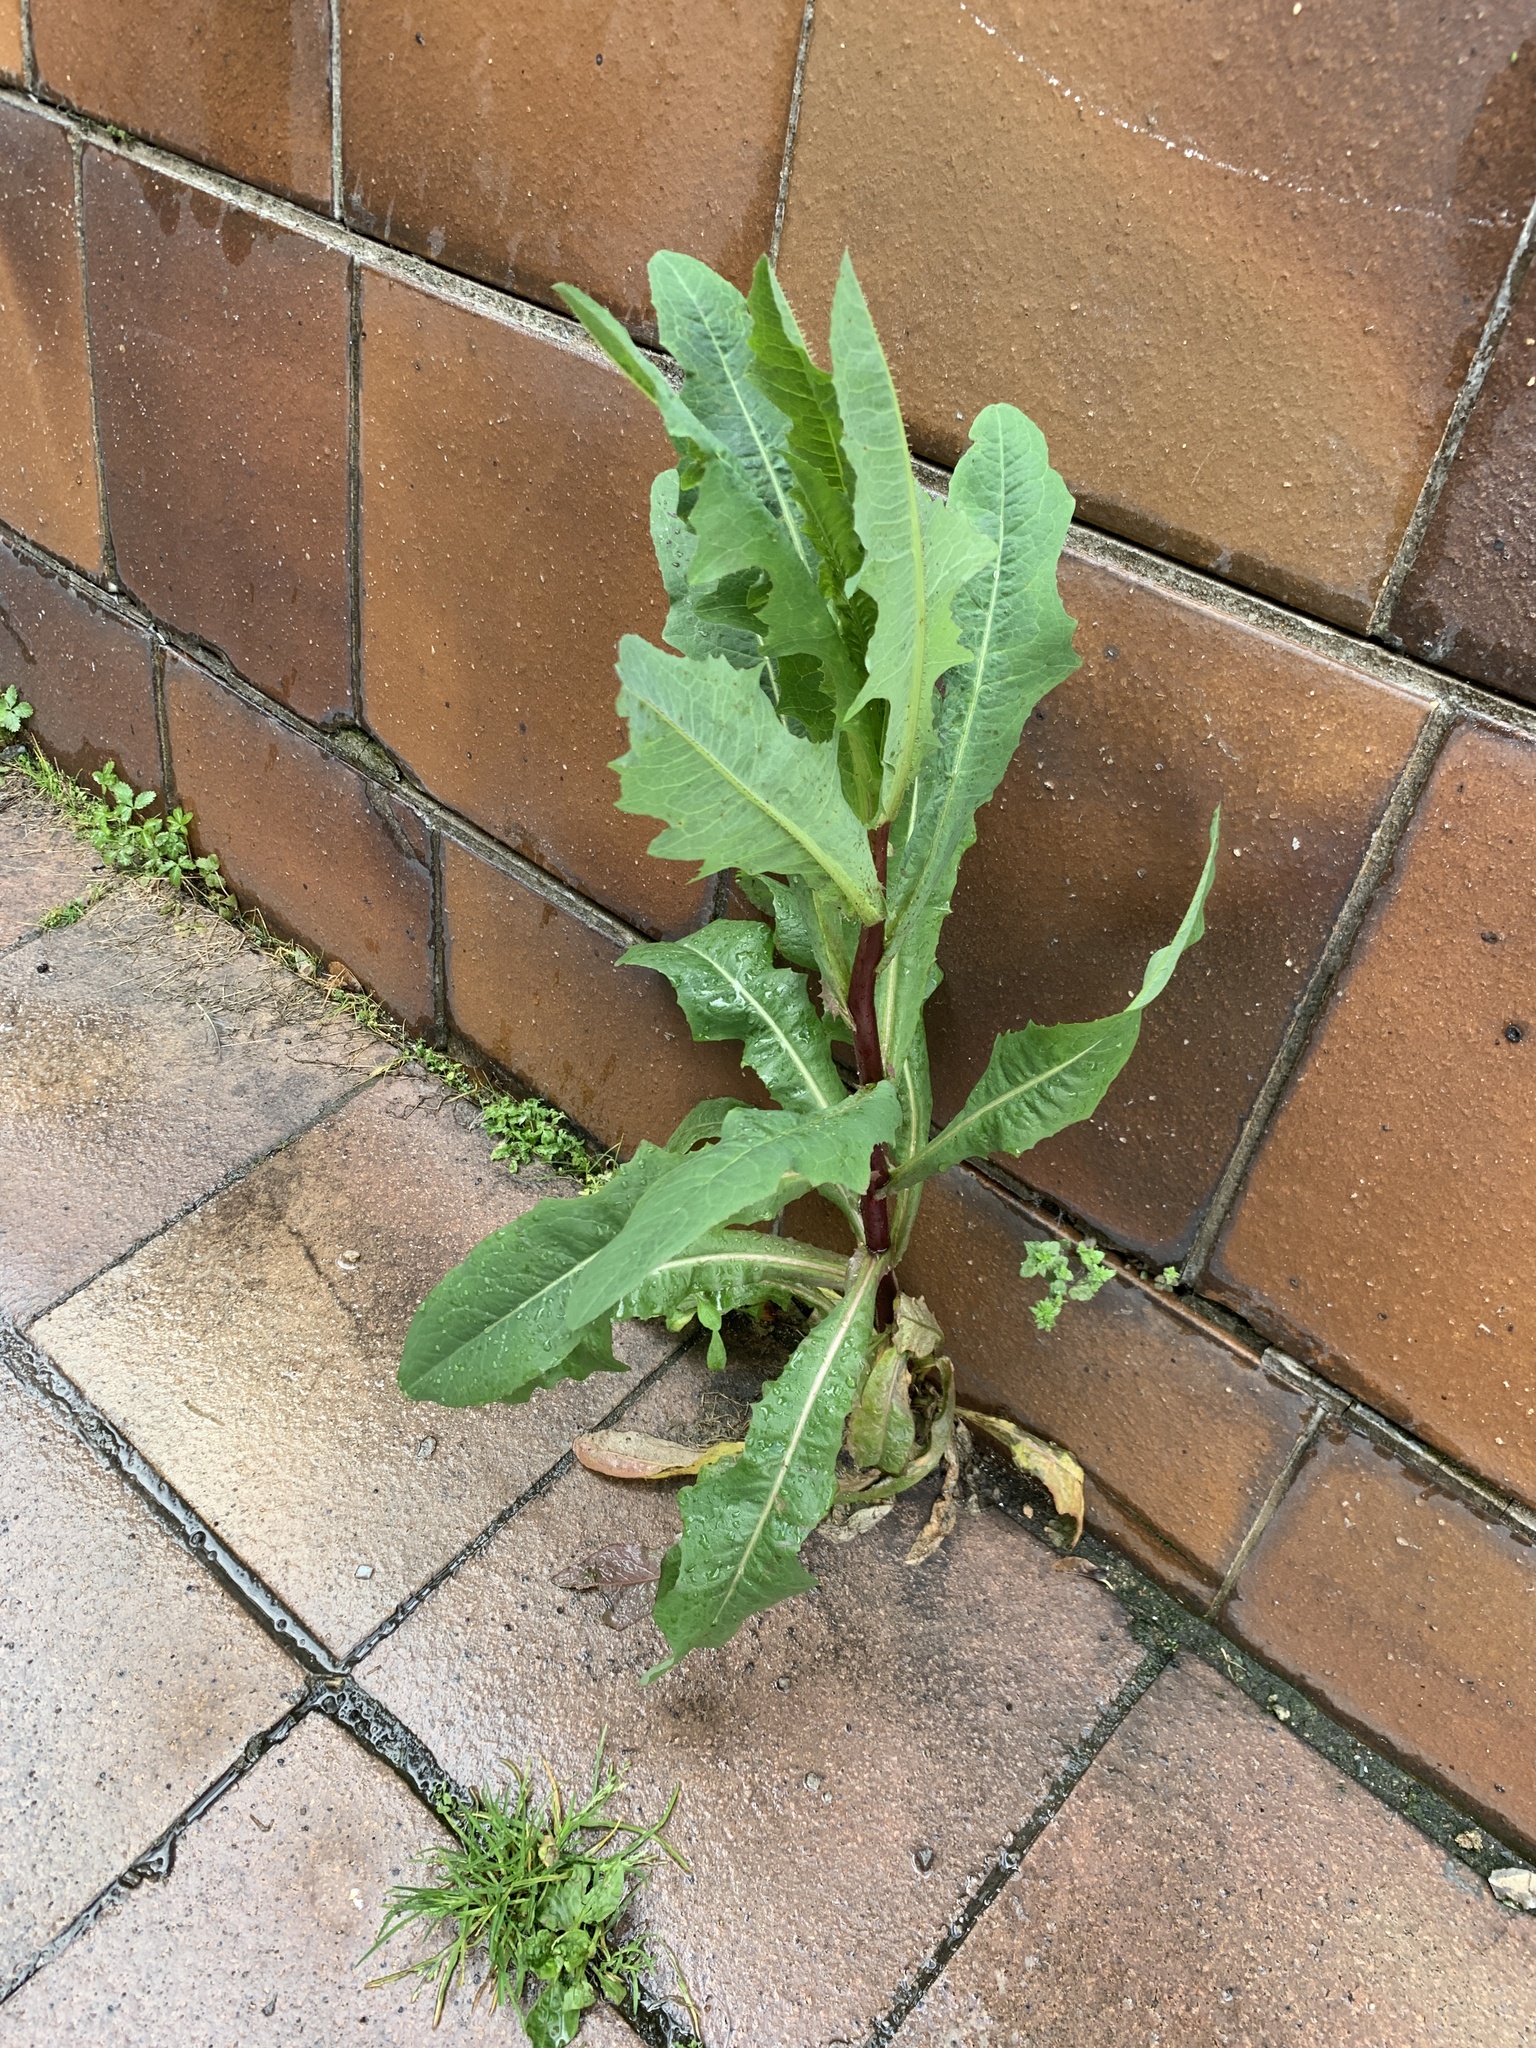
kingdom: Plantae
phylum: Tracheophyta
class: Magnoliopsida
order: Asterales
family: Asteraceae
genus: Lactuca
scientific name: Lactuca serriola
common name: Prickly lettuce
